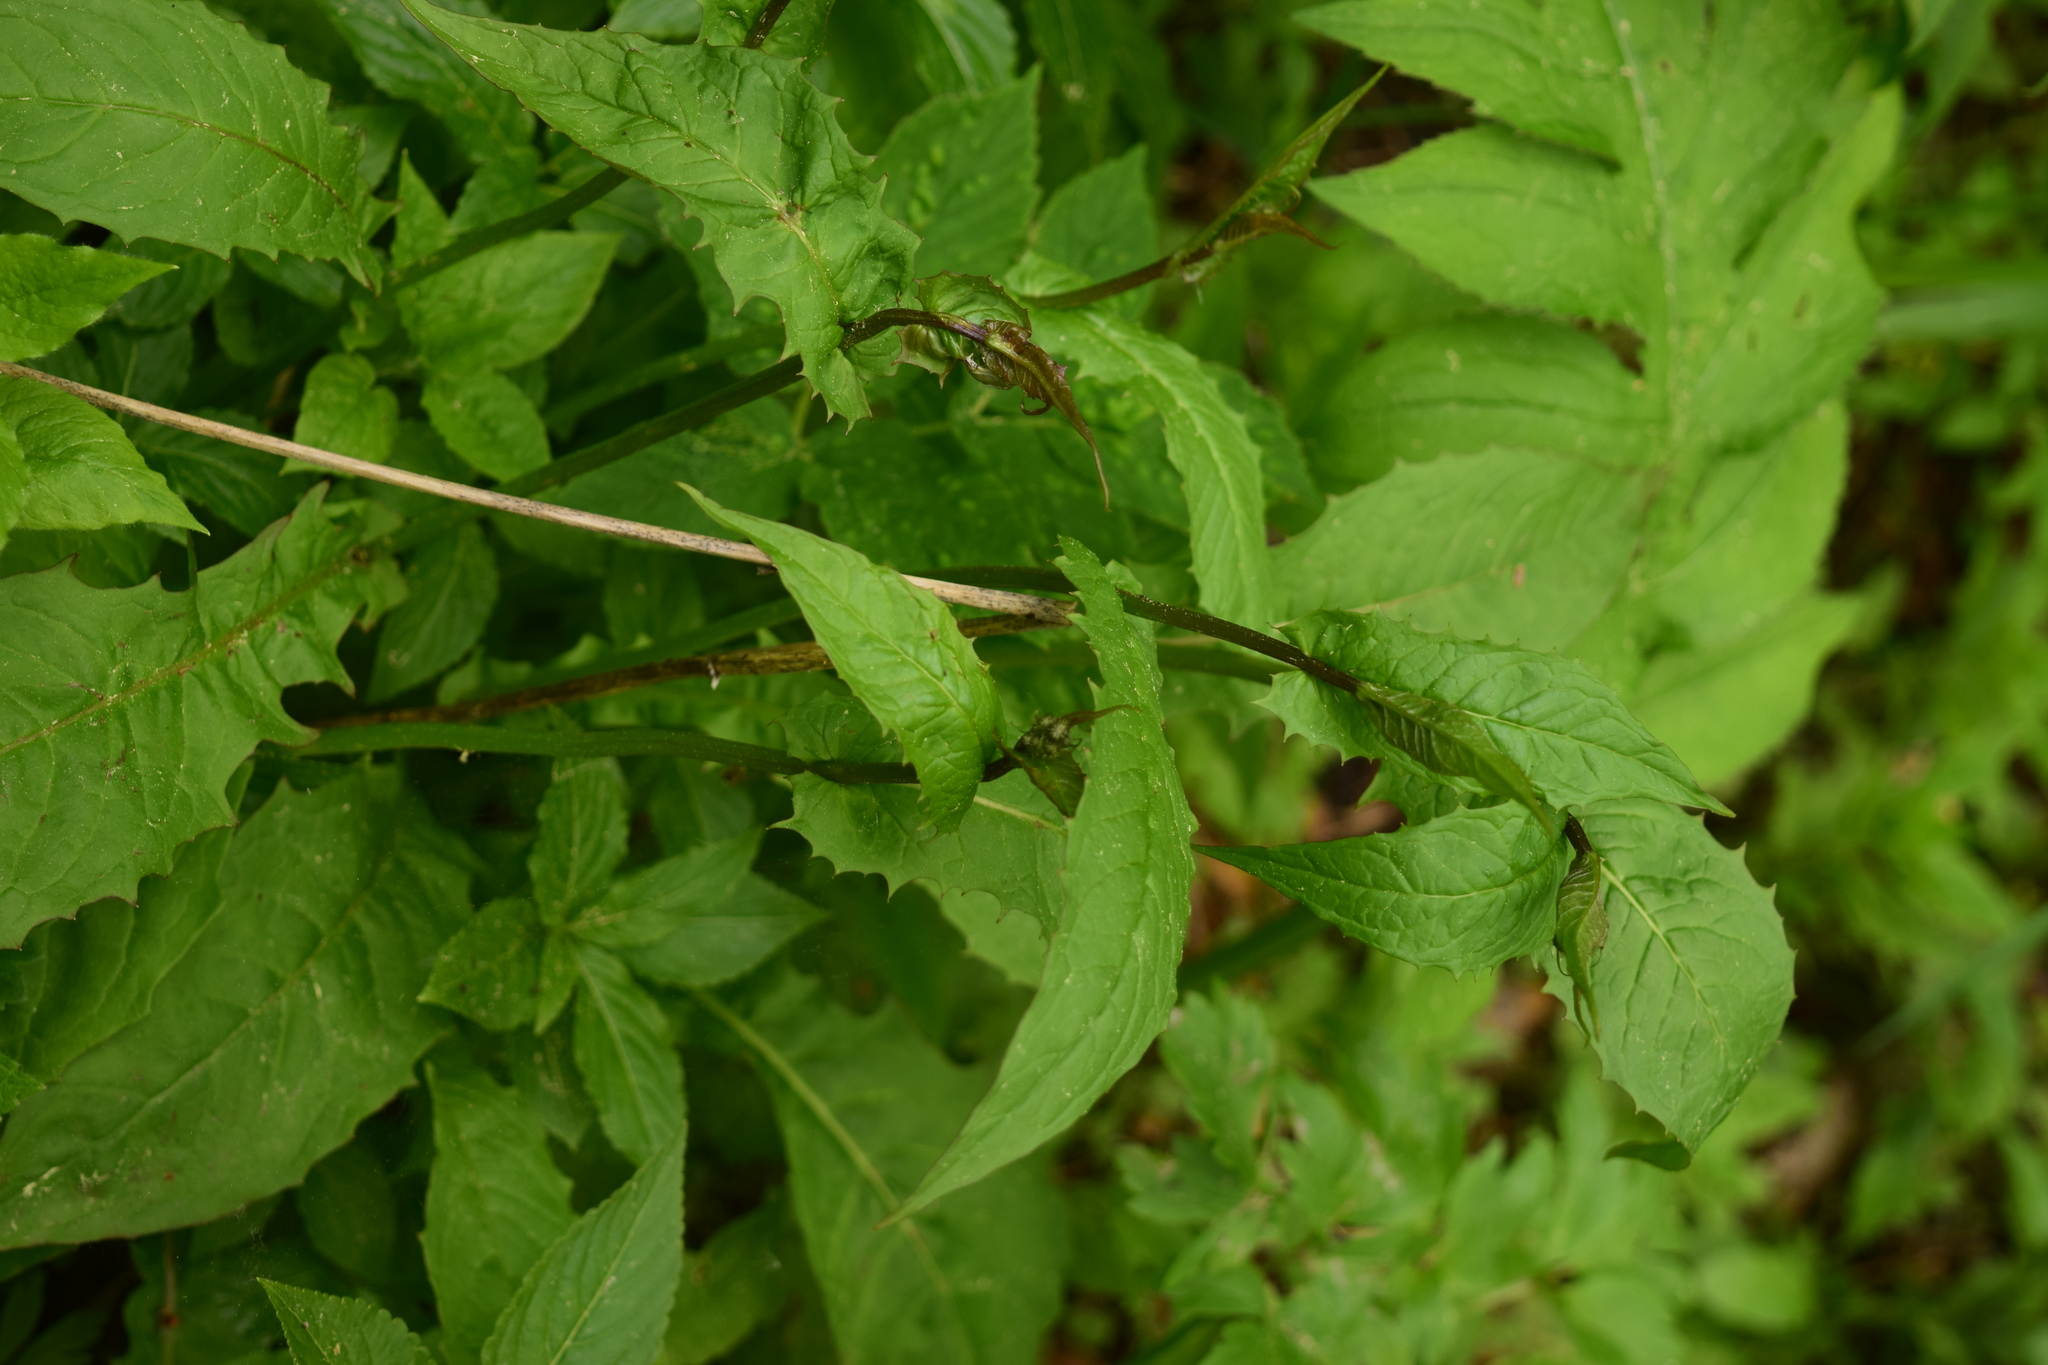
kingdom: Plantae
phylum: Tracheophyta
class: Magnoliopsida
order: Asterales
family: Asteraceae
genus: Crepis
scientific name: Crepis paludosa
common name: Marsh hawk's-beard
